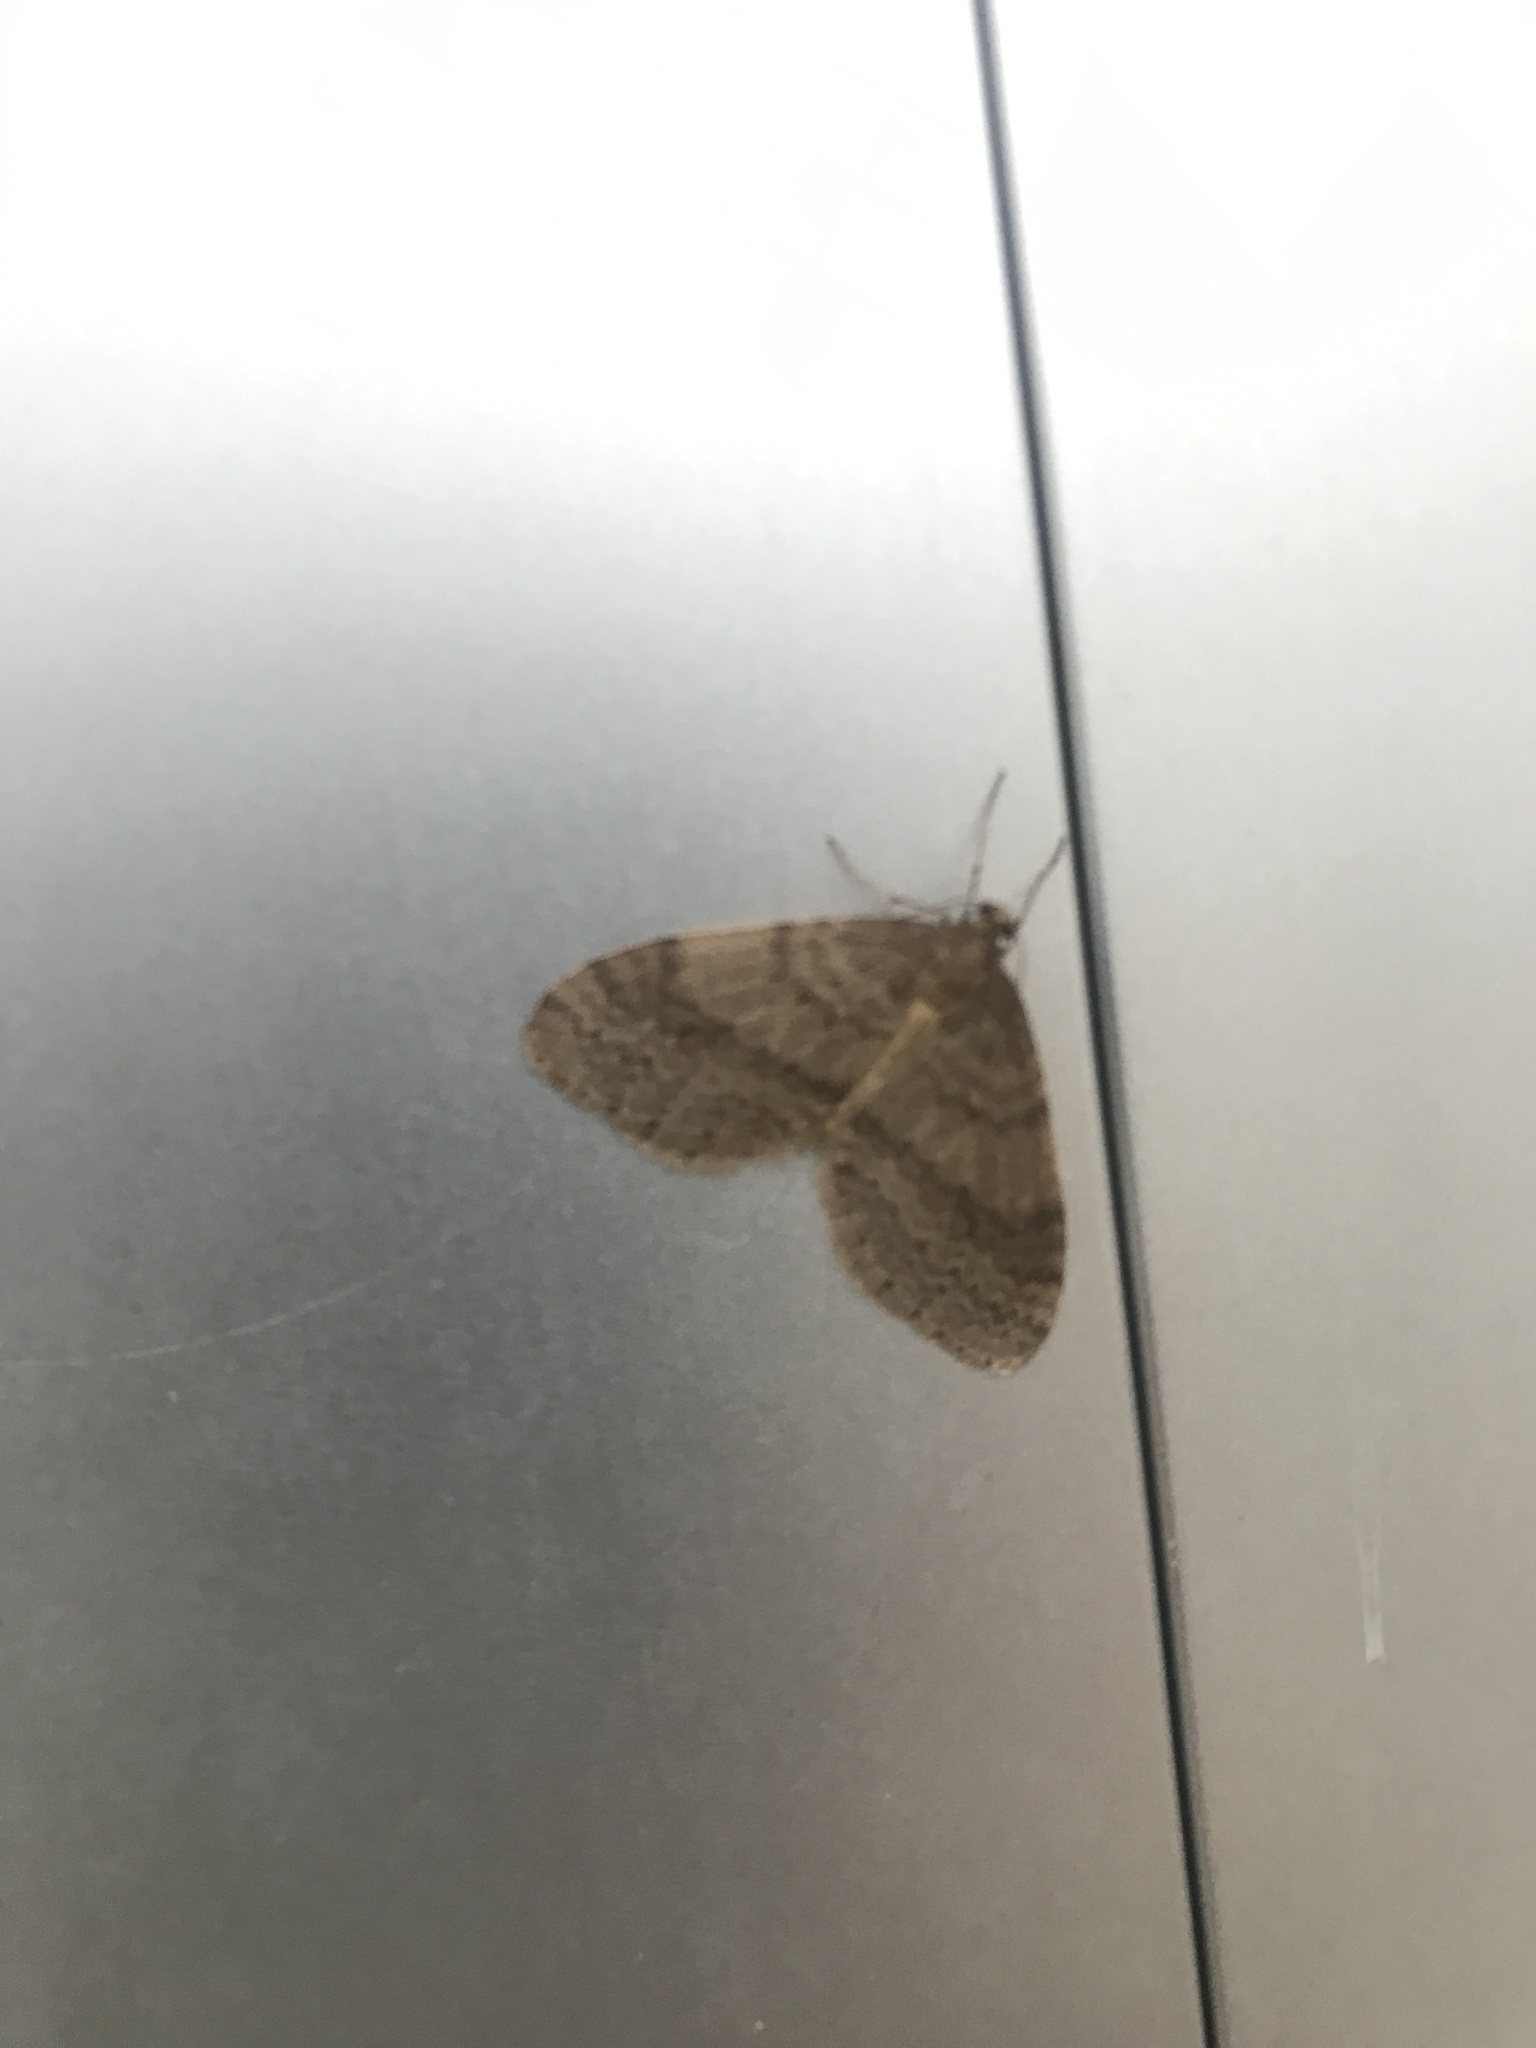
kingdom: Animalia
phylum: Arthropoda
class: Insecta
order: Lepidoptera
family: Geometridae
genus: Operophtera
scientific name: Operophtera bruceata
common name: Bruce spanworm
